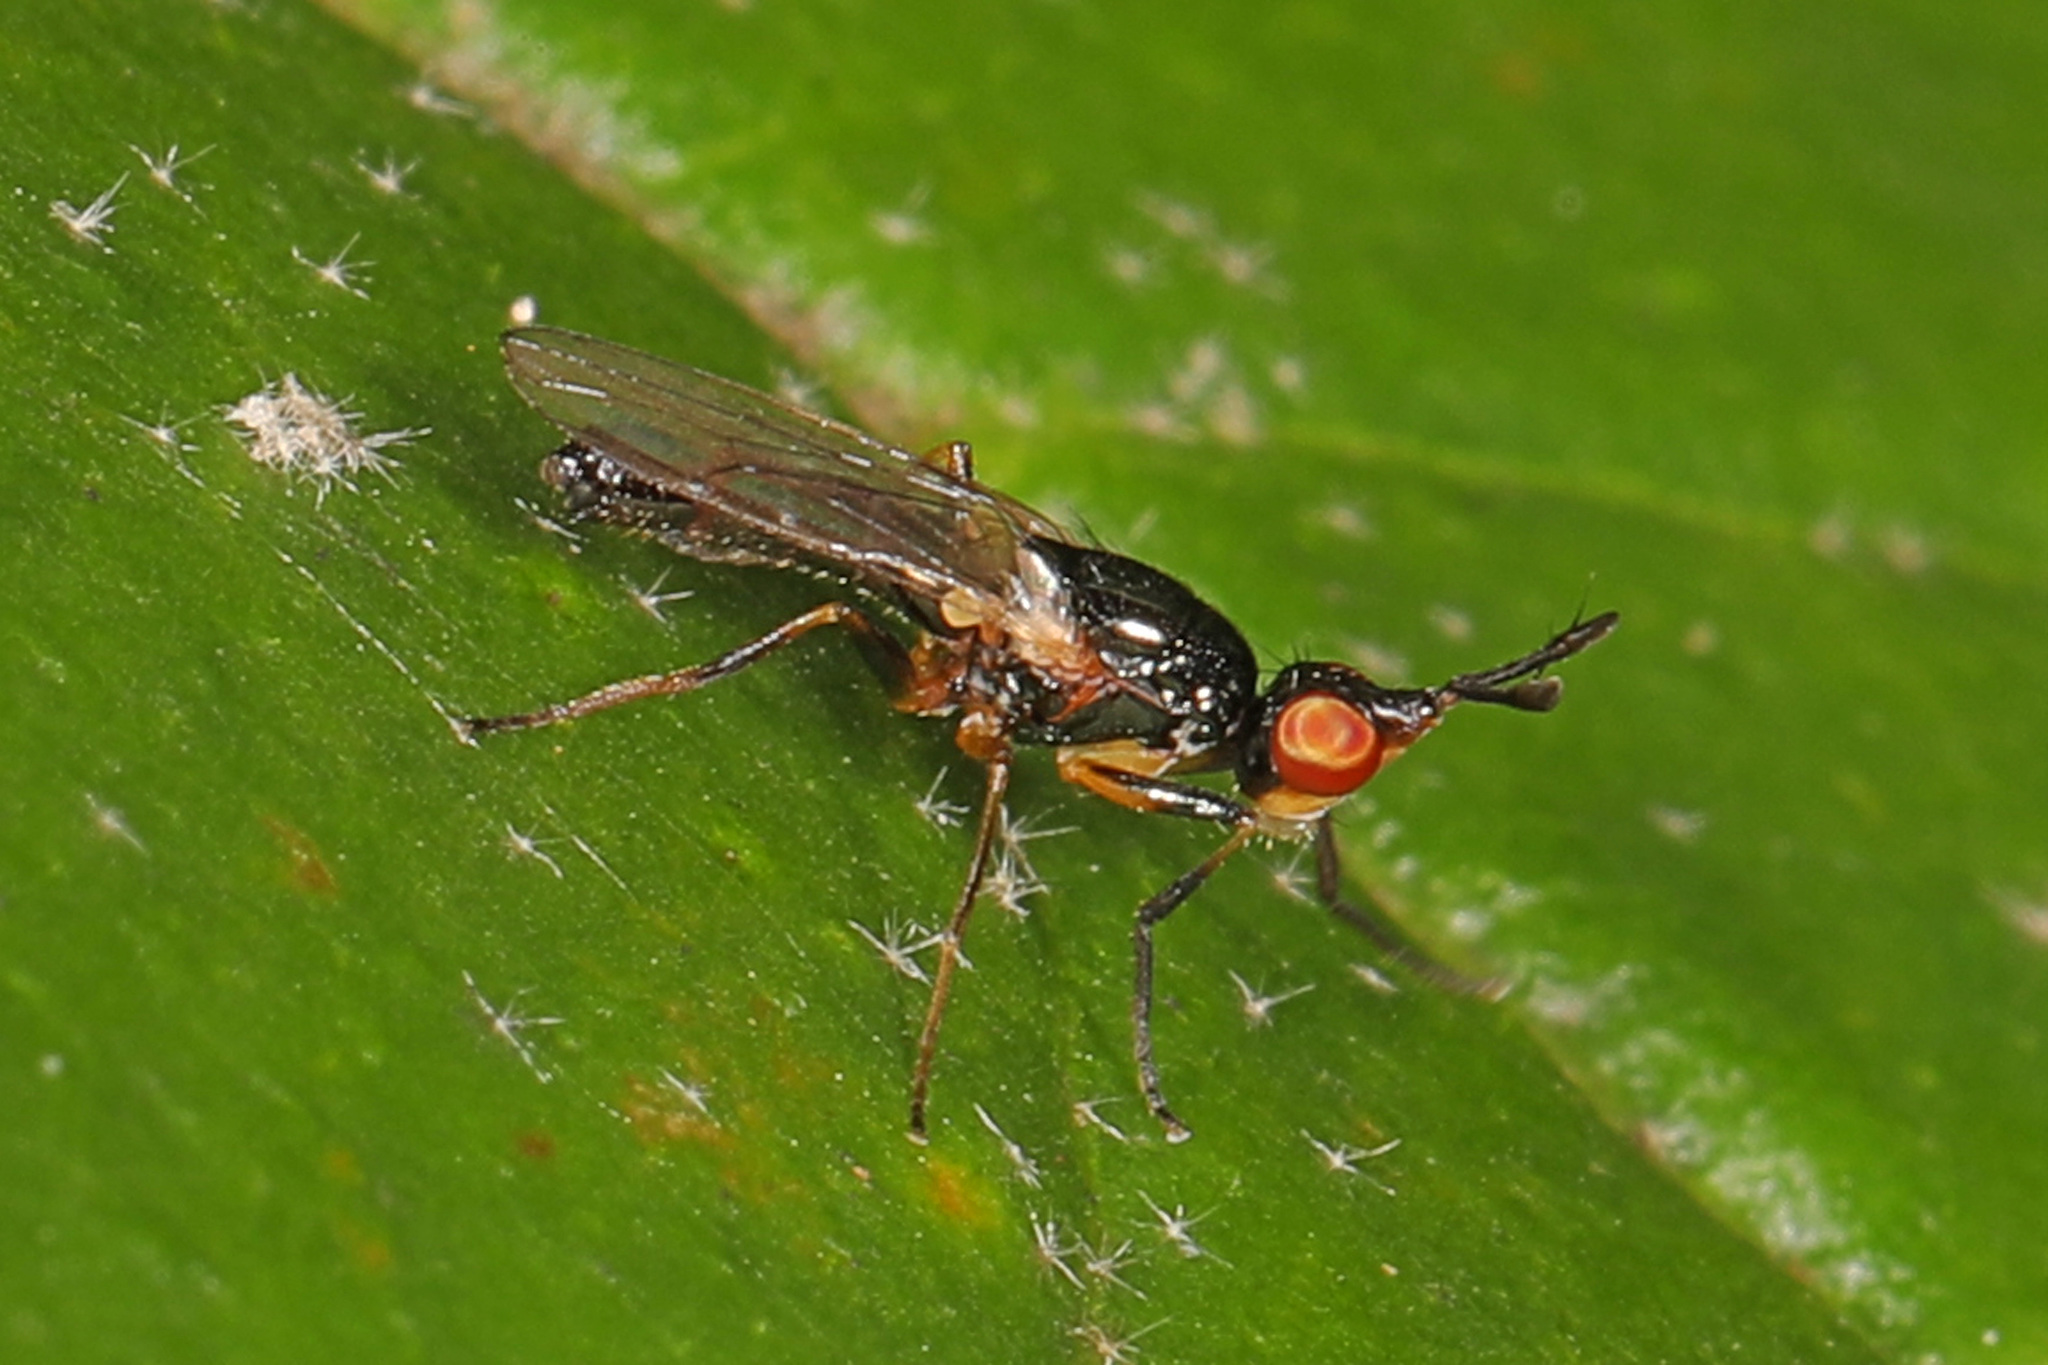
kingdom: Animalia
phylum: Arthropoda
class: Insecta
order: Diptera
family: Piophilidae
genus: Prochyliza
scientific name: Prochyliza xanthostoma
